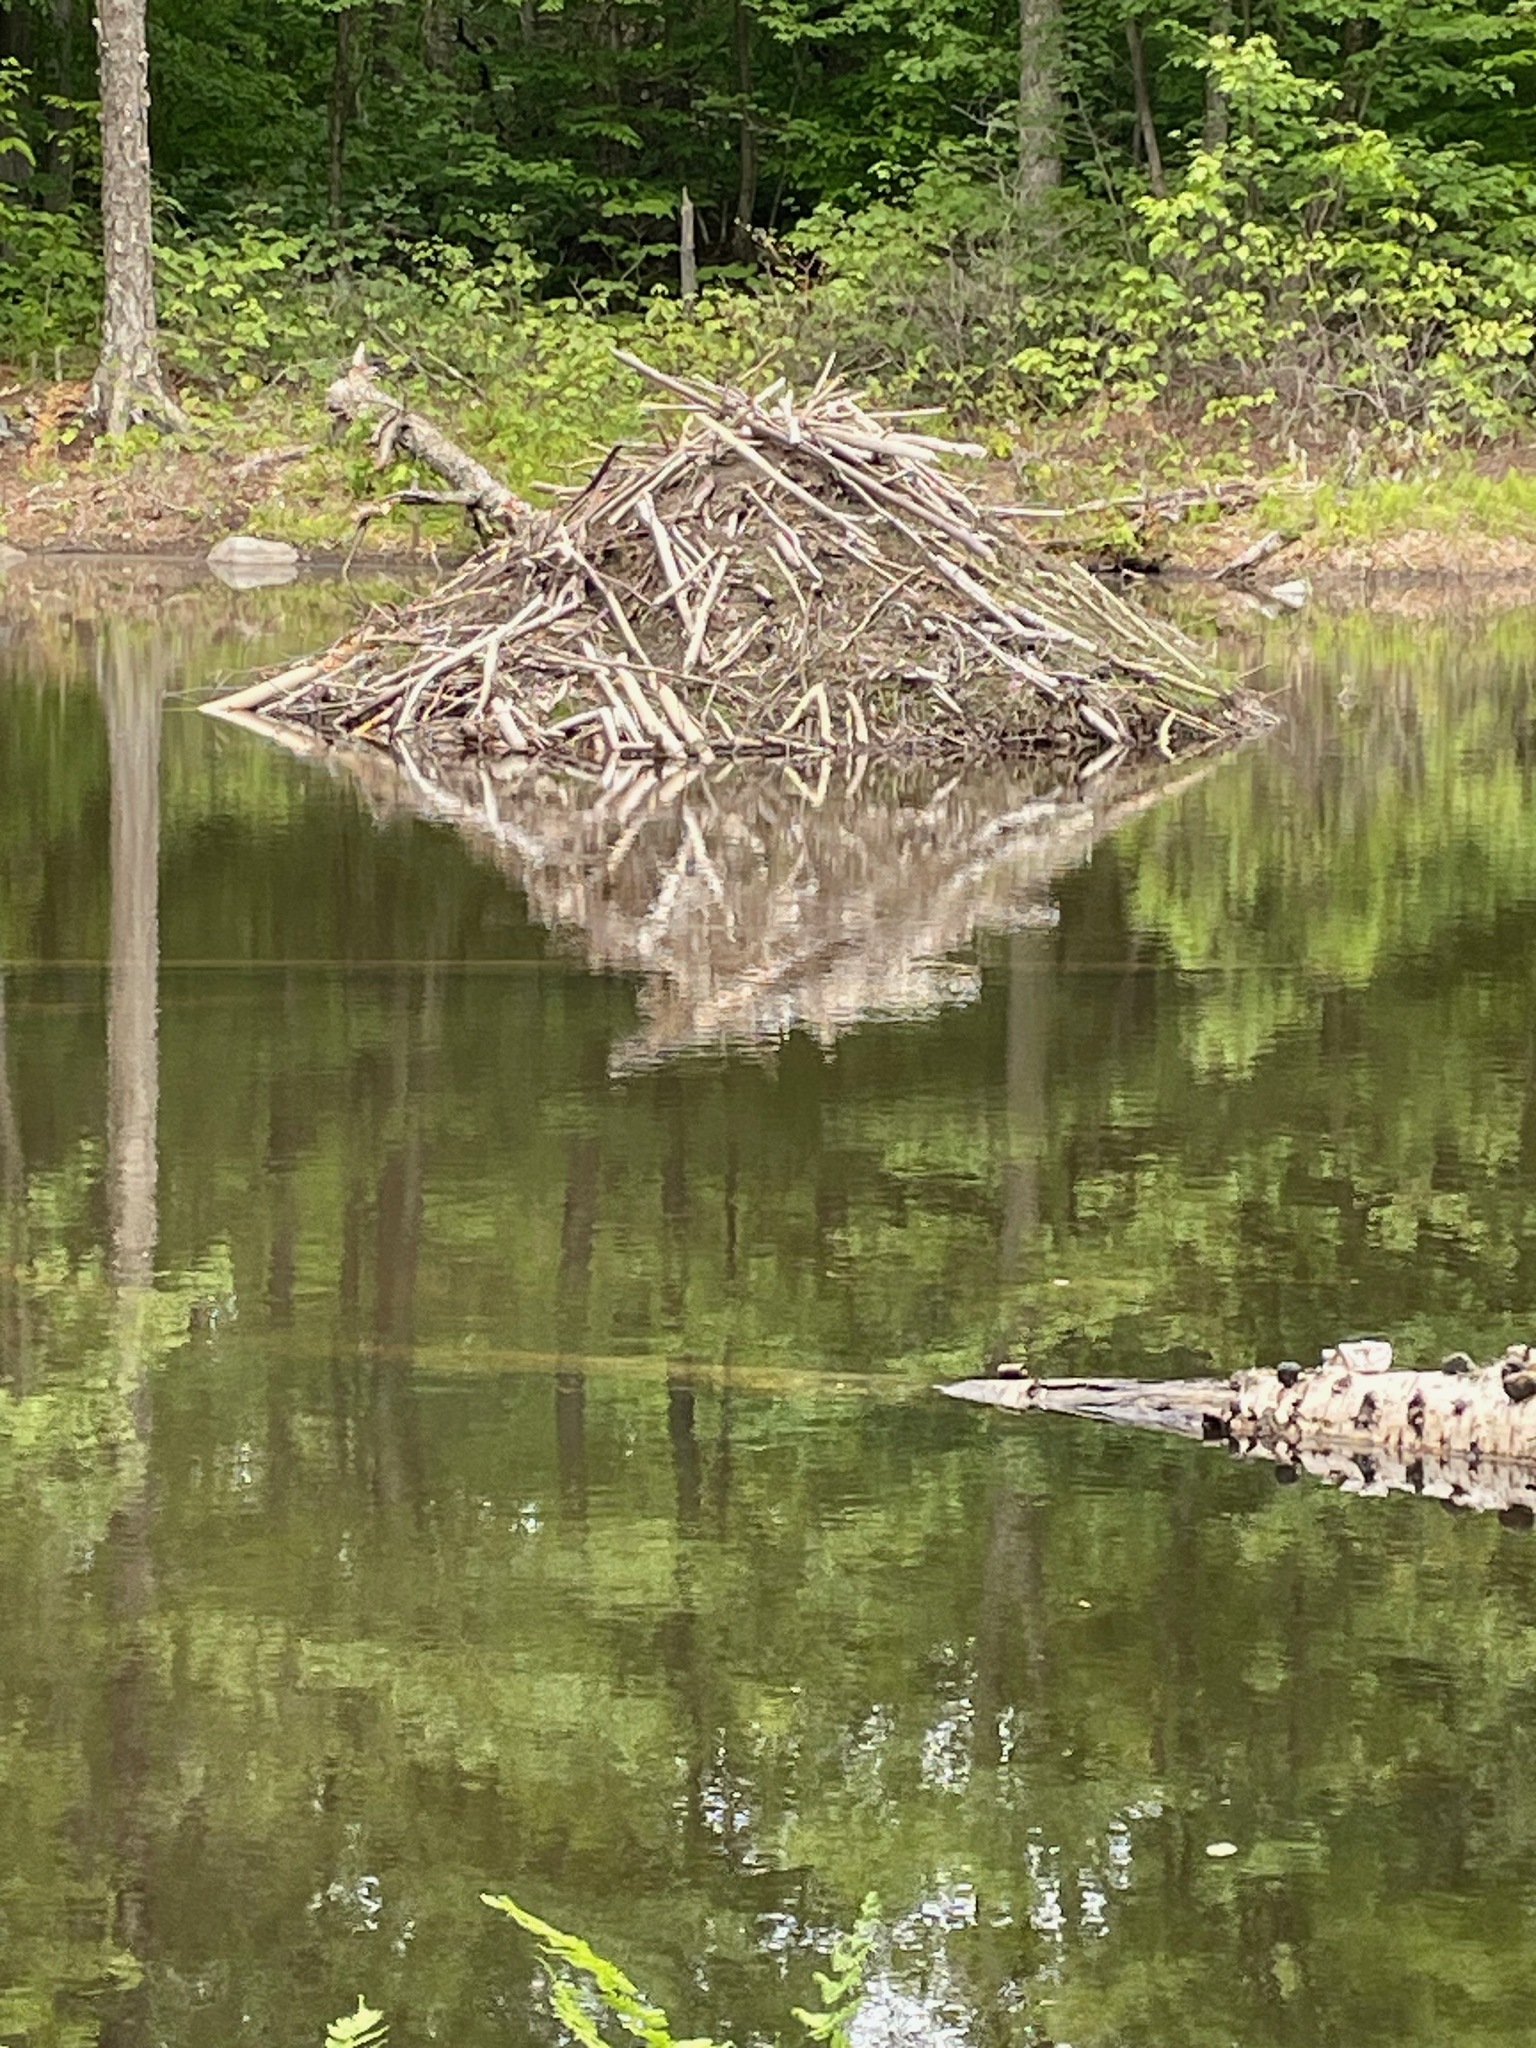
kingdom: Animalia
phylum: Chordata
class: Mammalia
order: Rodentia
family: Castoridae
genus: Castor
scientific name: Castor canadensis
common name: American beaver
